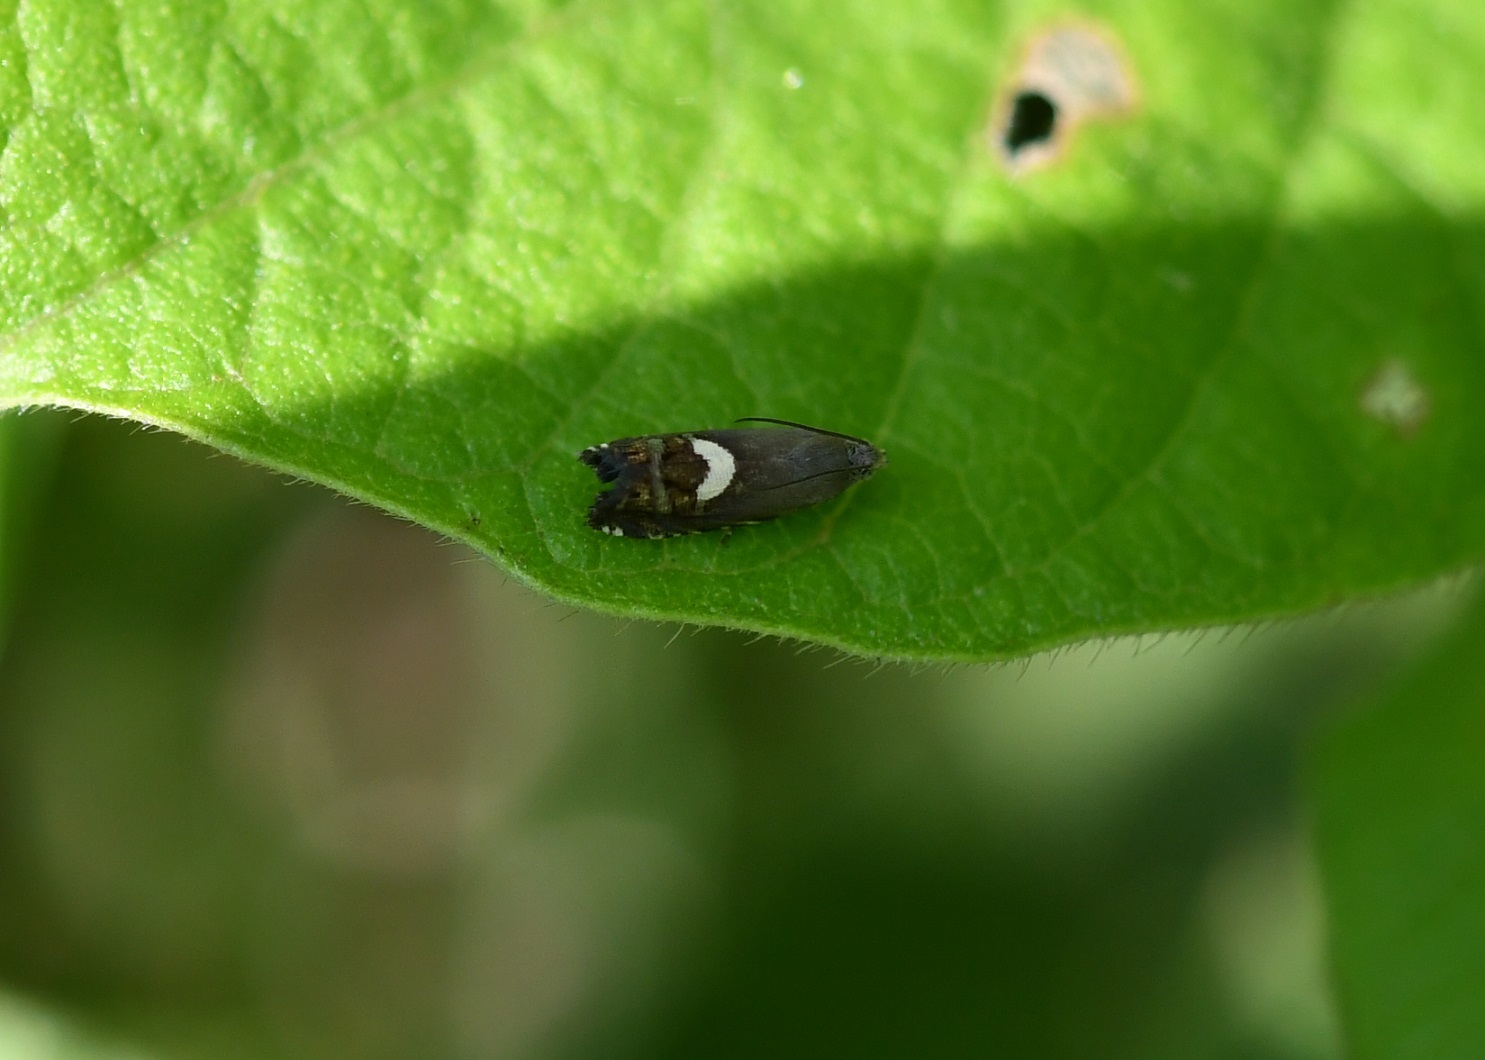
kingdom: Animalia
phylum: Arthropoda
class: Insecta
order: Lepidoptera
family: Tortricidae
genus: Grapholita
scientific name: Grapholita fana
